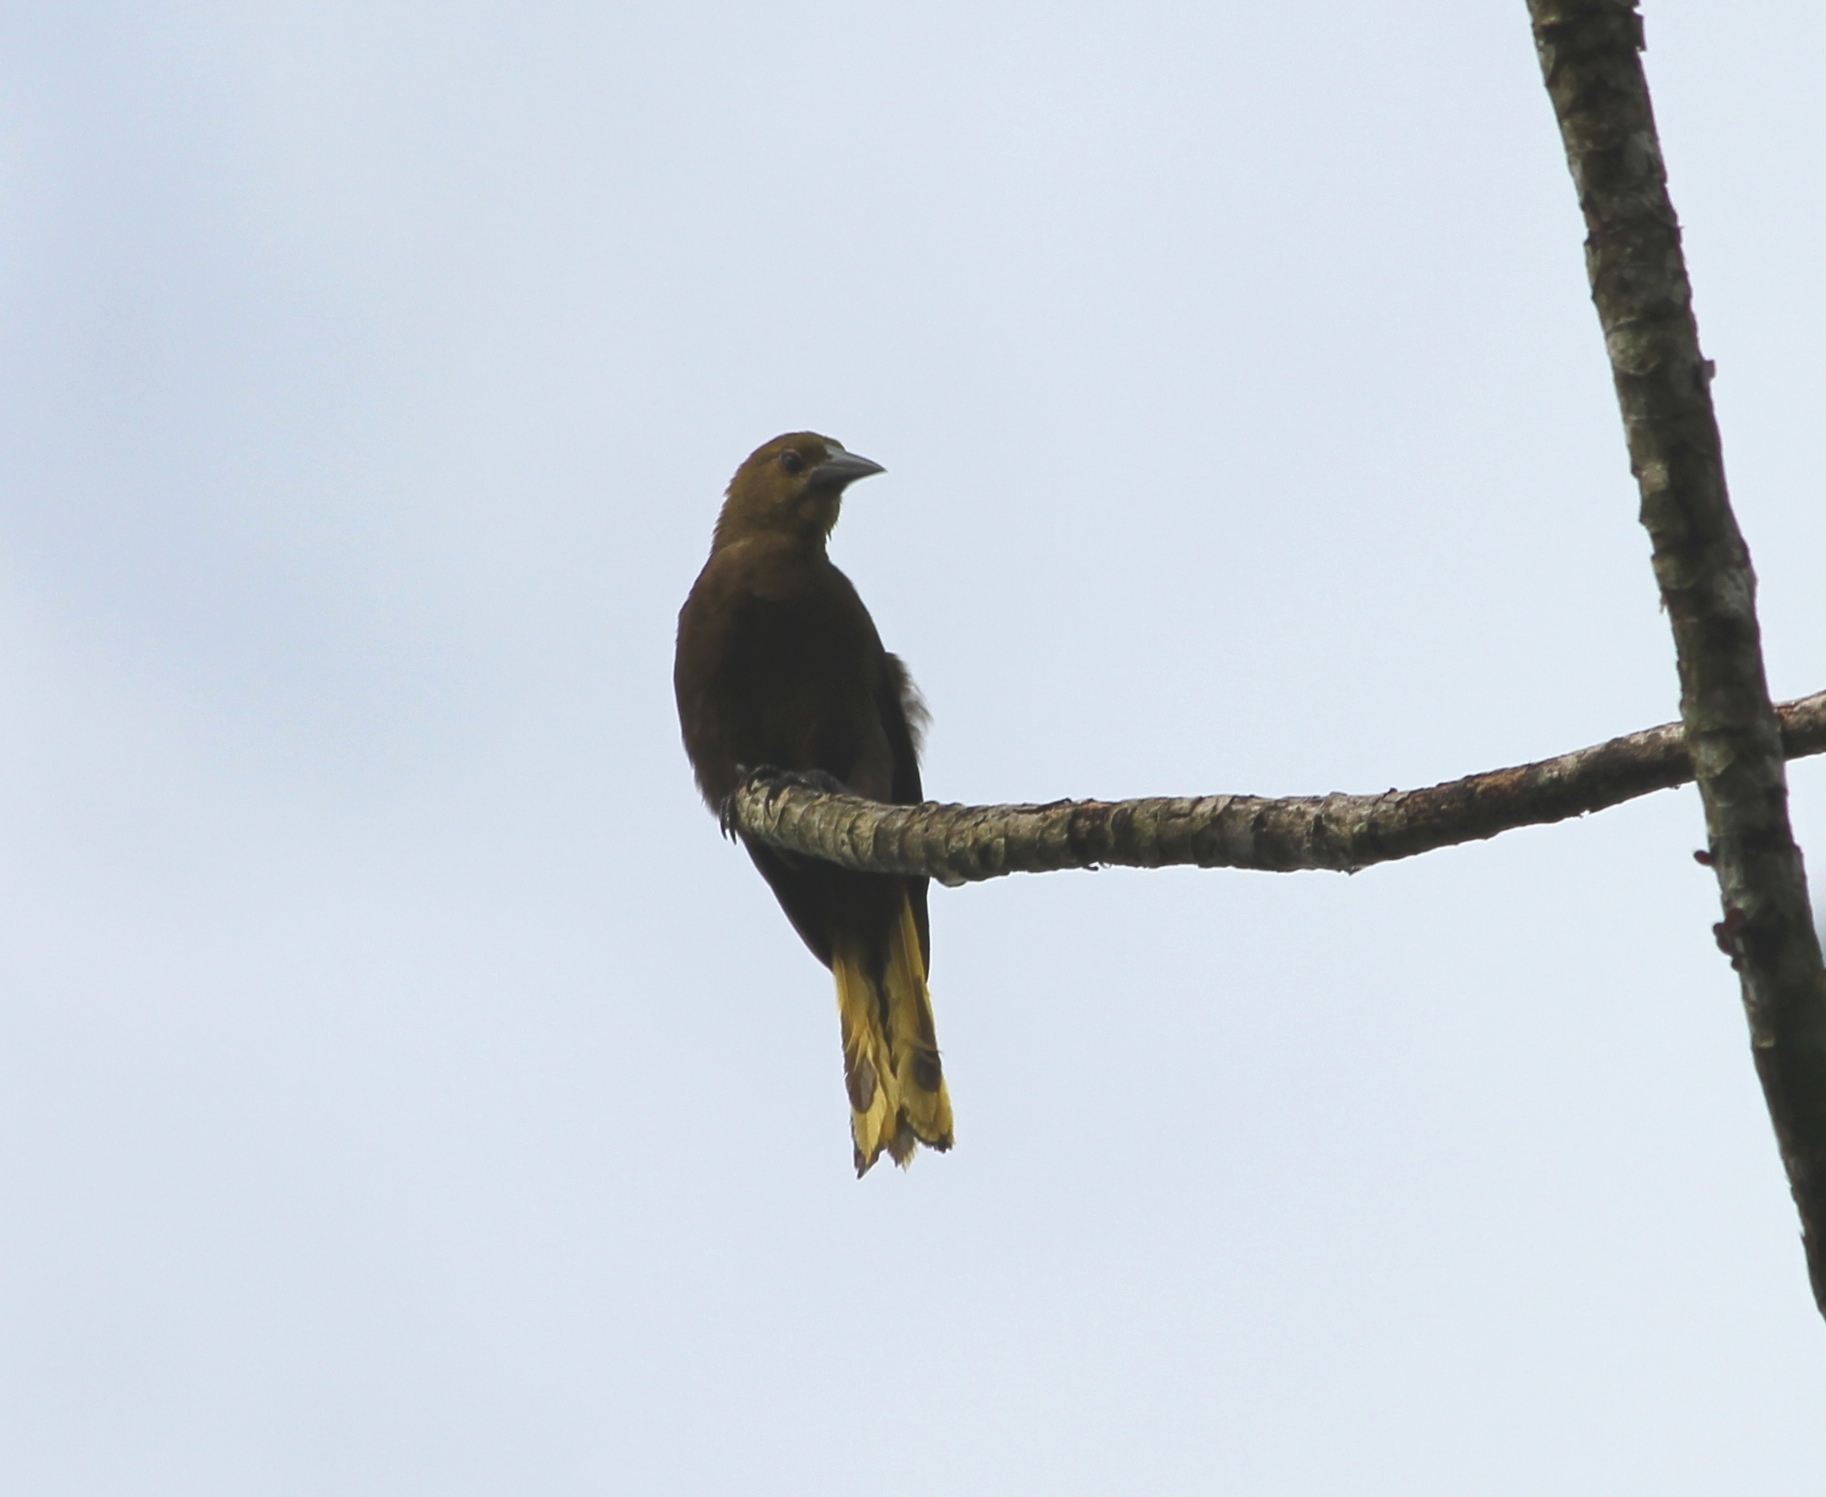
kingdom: Animalia
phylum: Chordata
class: Aves
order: Passeriformes
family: Icteridae
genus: Psarocolius
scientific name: Psarocolius angustifrons
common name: Russet-backed oropendola
